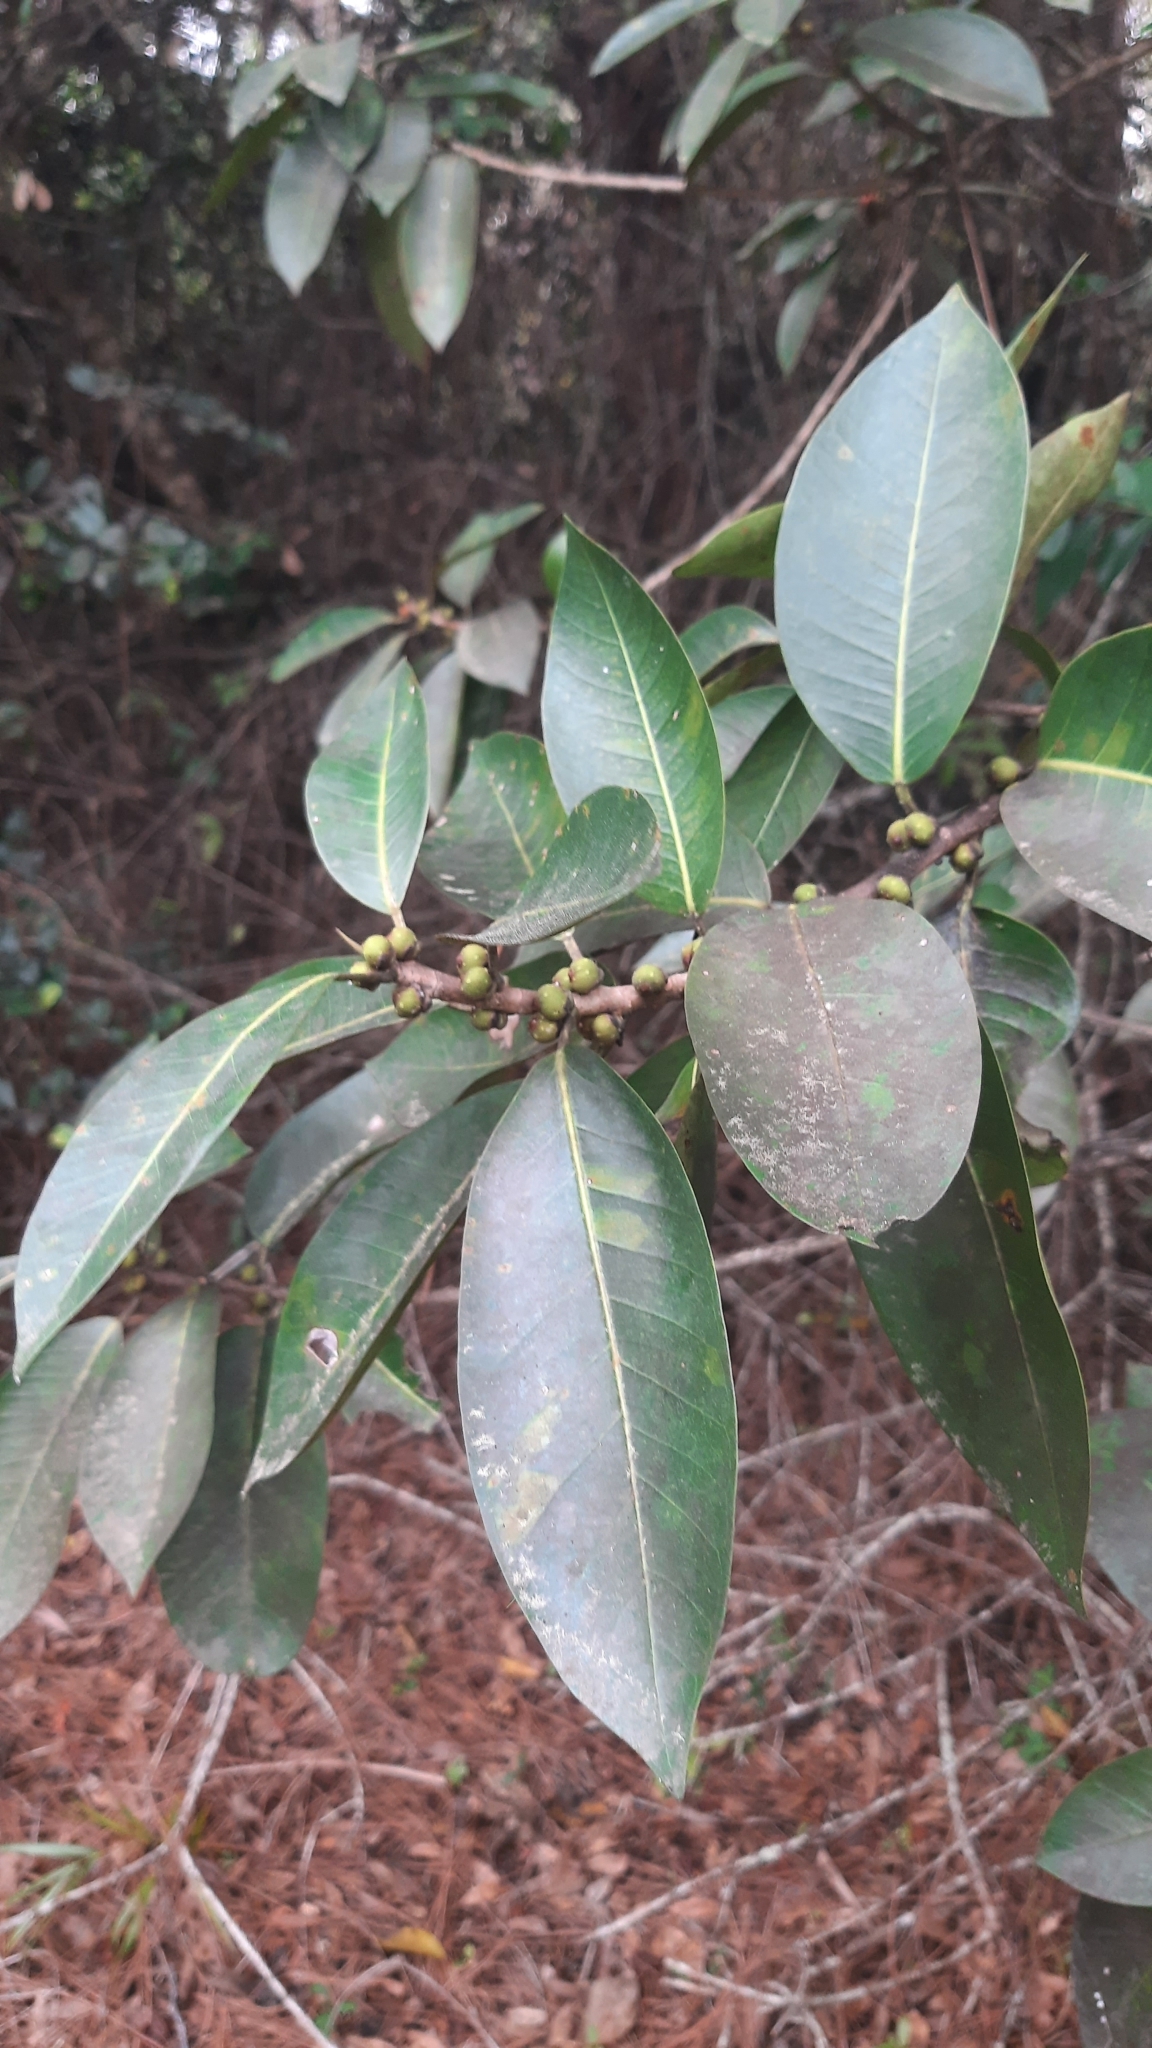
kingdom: Plantae
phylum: Tracheophyta
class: Magnoliopsida
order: Rosales
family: Moraceae
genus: Ficus
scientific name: Ficus aurea
